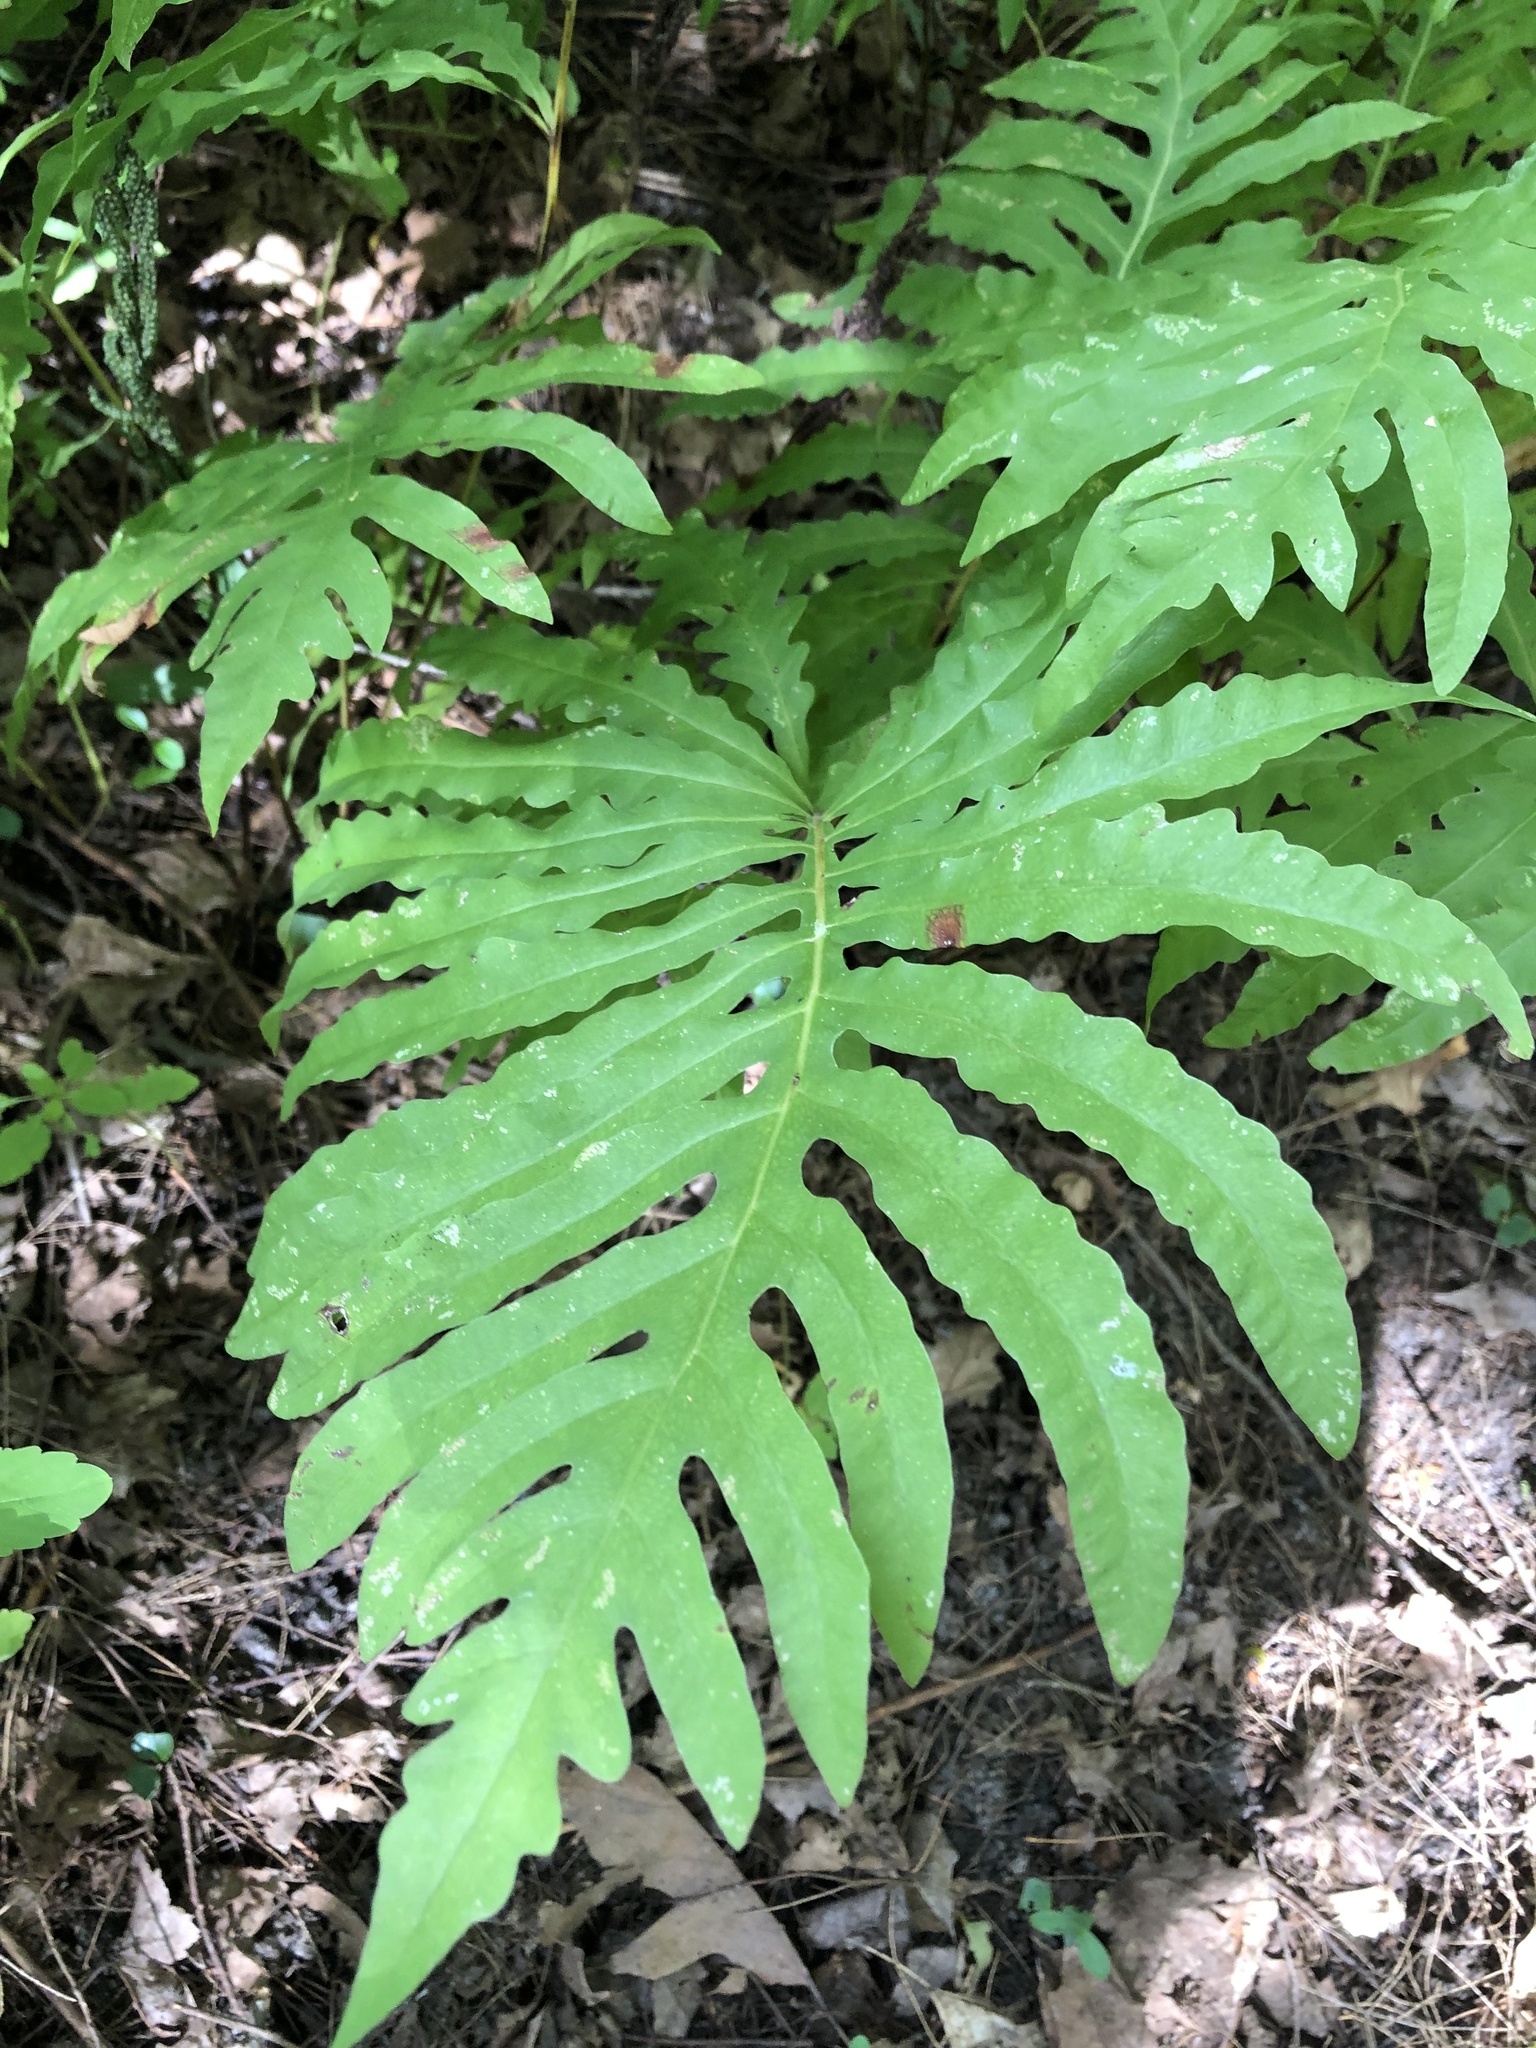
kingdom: Plantae
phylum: Tracheophyta
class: Polypodiopsida
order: Polypodiales
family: Onocleaceae
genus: Onoclea
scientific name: Onoclea sensibilis
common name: Sensitive fern
